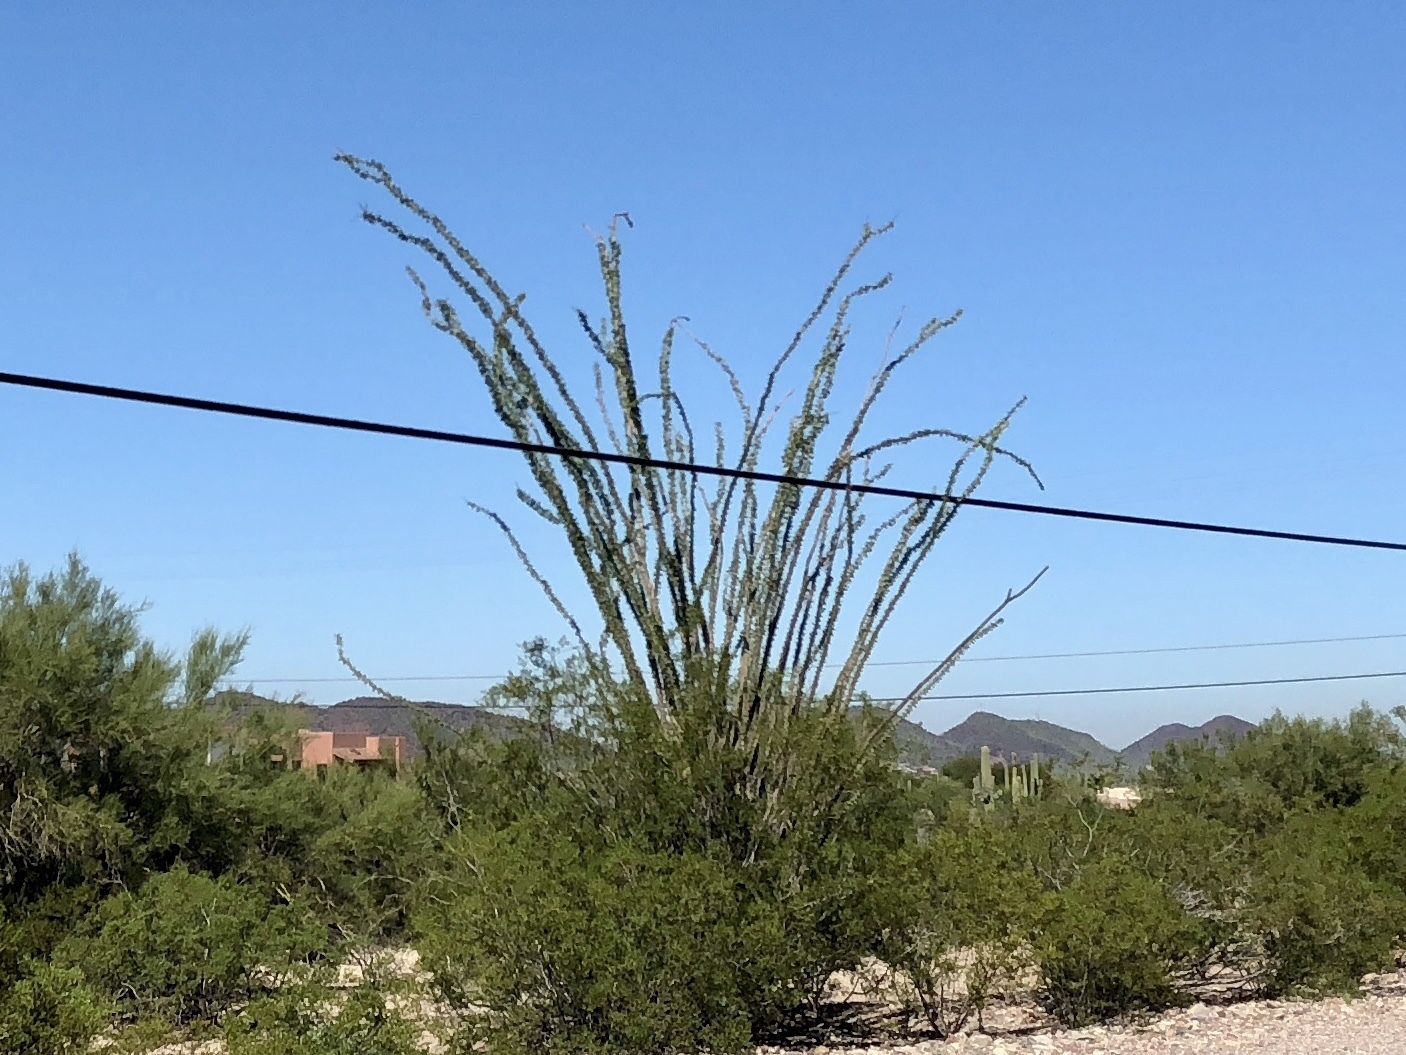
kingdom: Plantae
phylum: Tracheophyta
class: Magnoliopsida
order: Ericales
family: Fouquieriaceae
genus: Fouquieria
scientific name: Fouquieria splendens
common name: Vine-cactus
